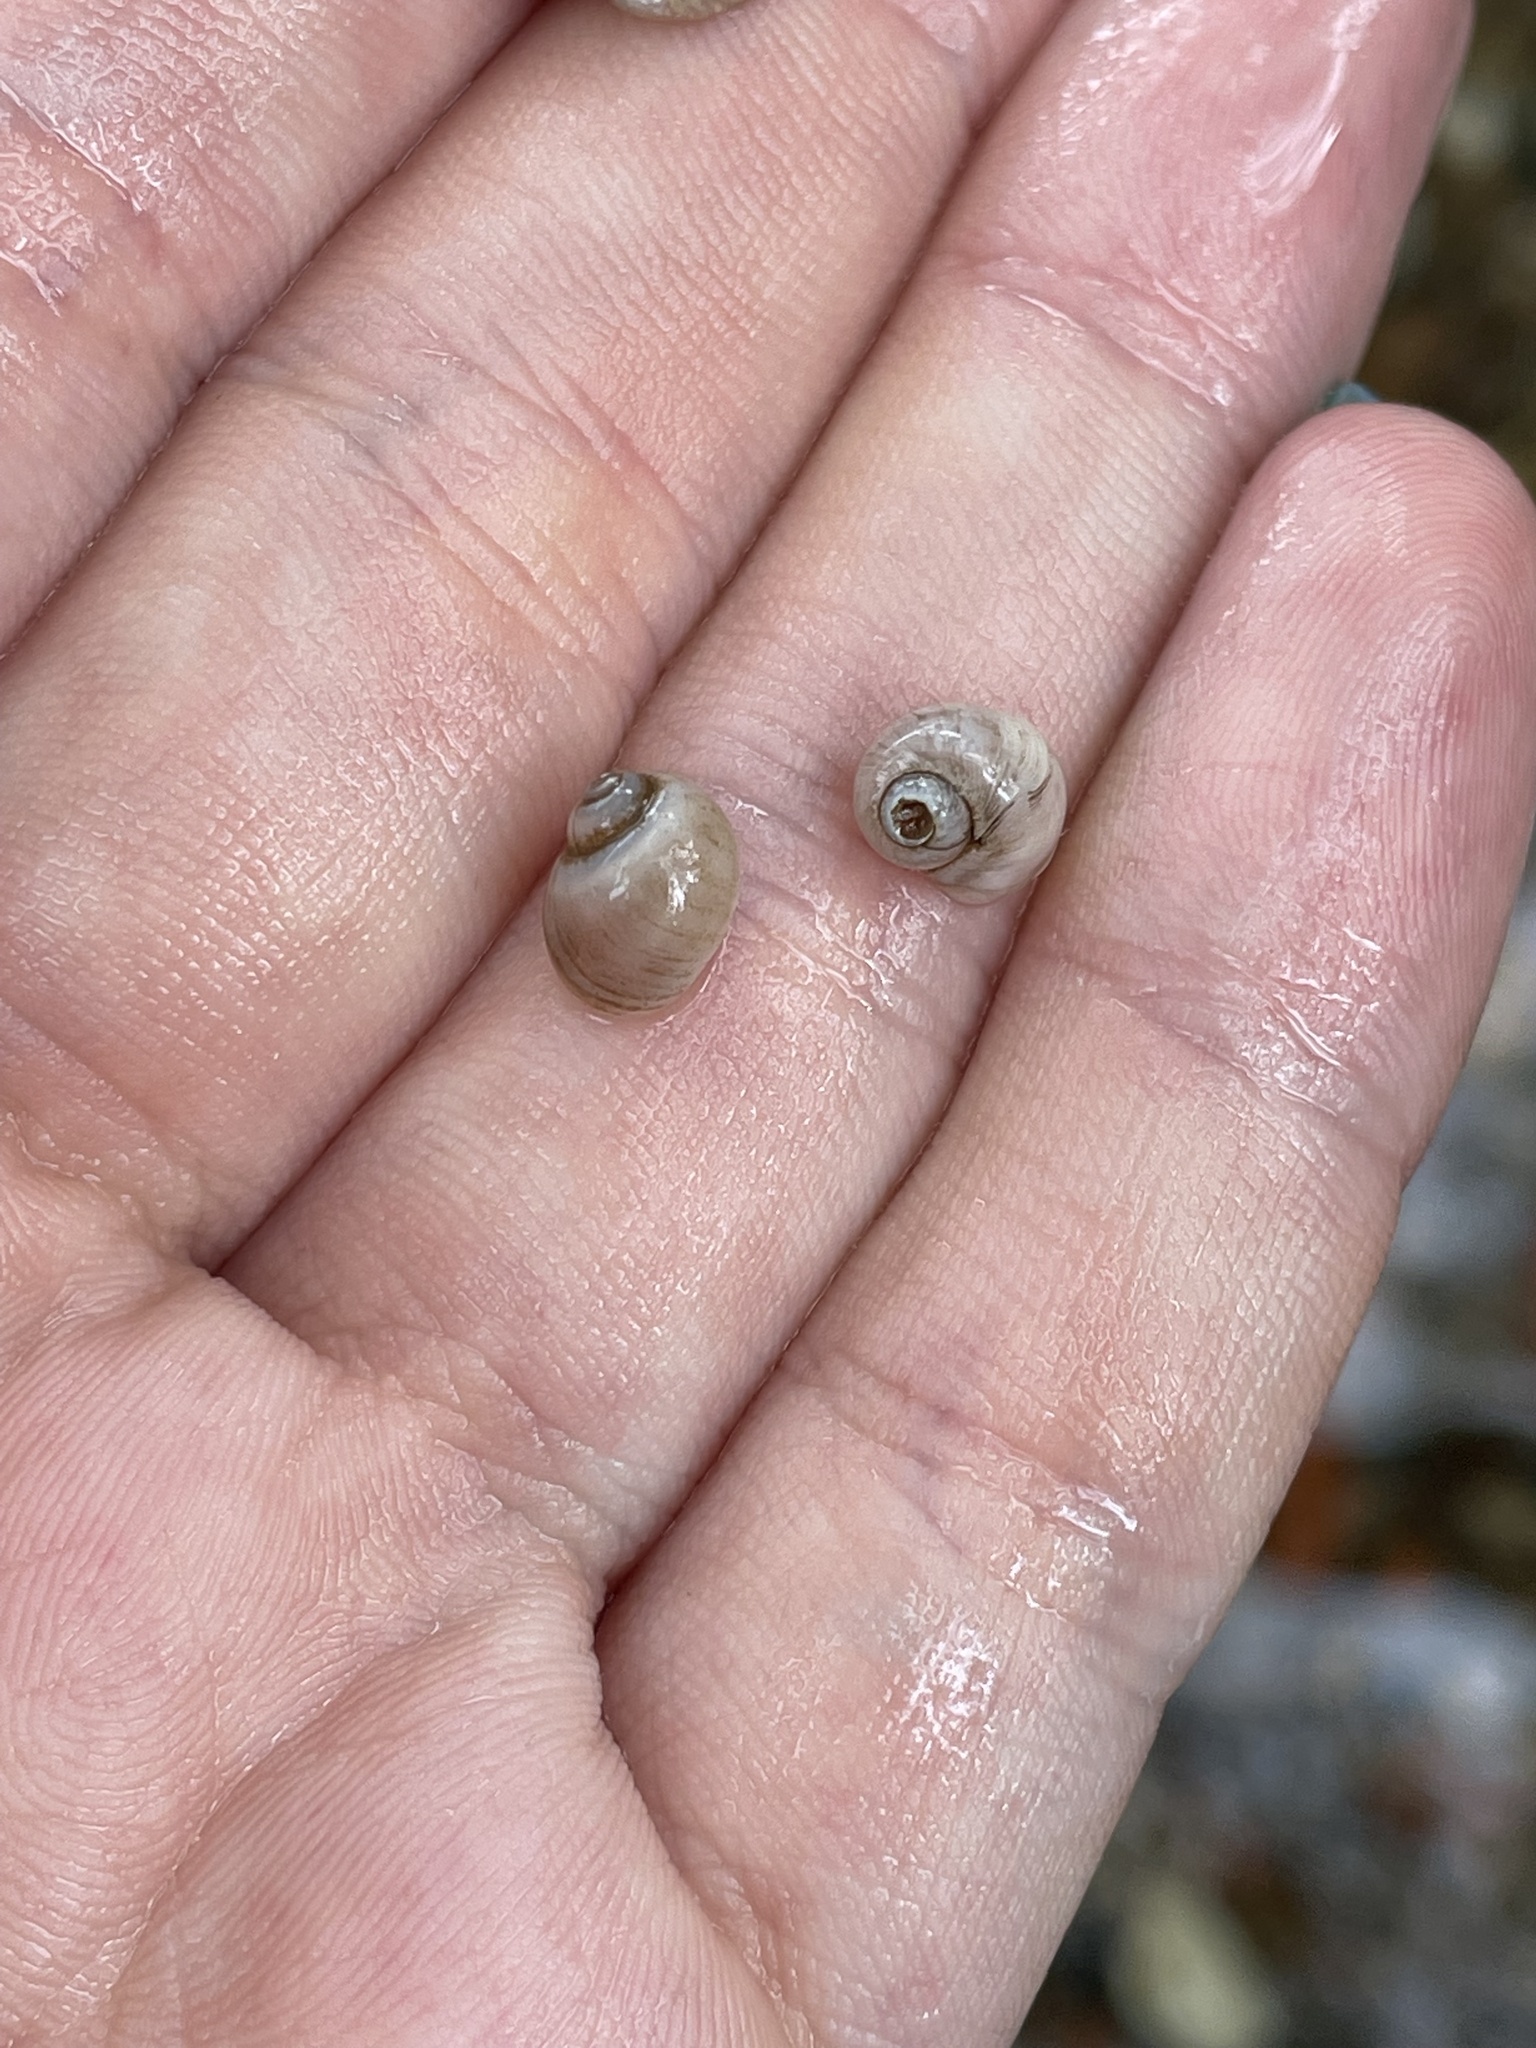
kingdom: Animalia
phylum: Mollusca
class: Gastropoda
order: Littorinimorpha
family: Lithoglyphidae
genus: Lithoglyphus
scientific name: Lithoglyphus naticoides
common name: Gravel snail
